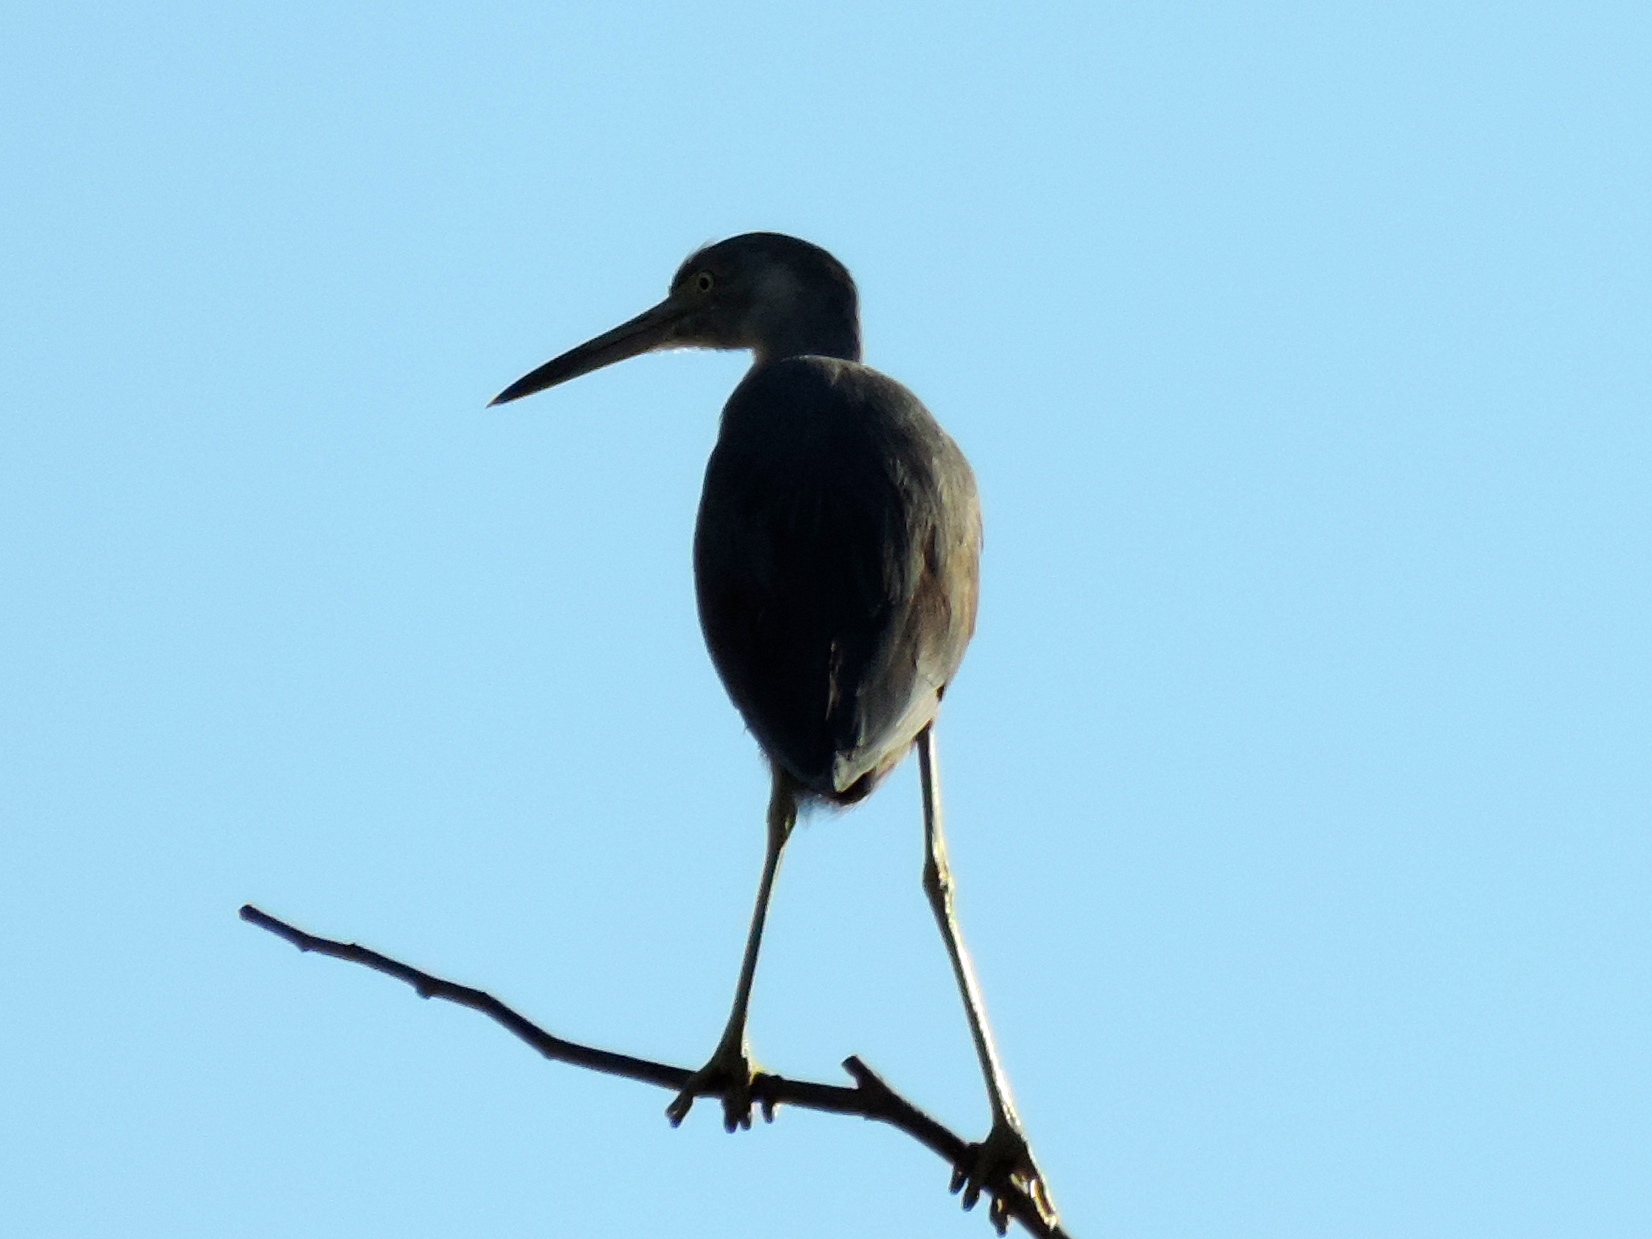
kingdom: Animalia
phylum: Chordata
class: Aves
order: Pelecaniformes
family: Ardeidae
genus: Egretta
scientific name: Egretta caerulea
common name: Little blue heron
